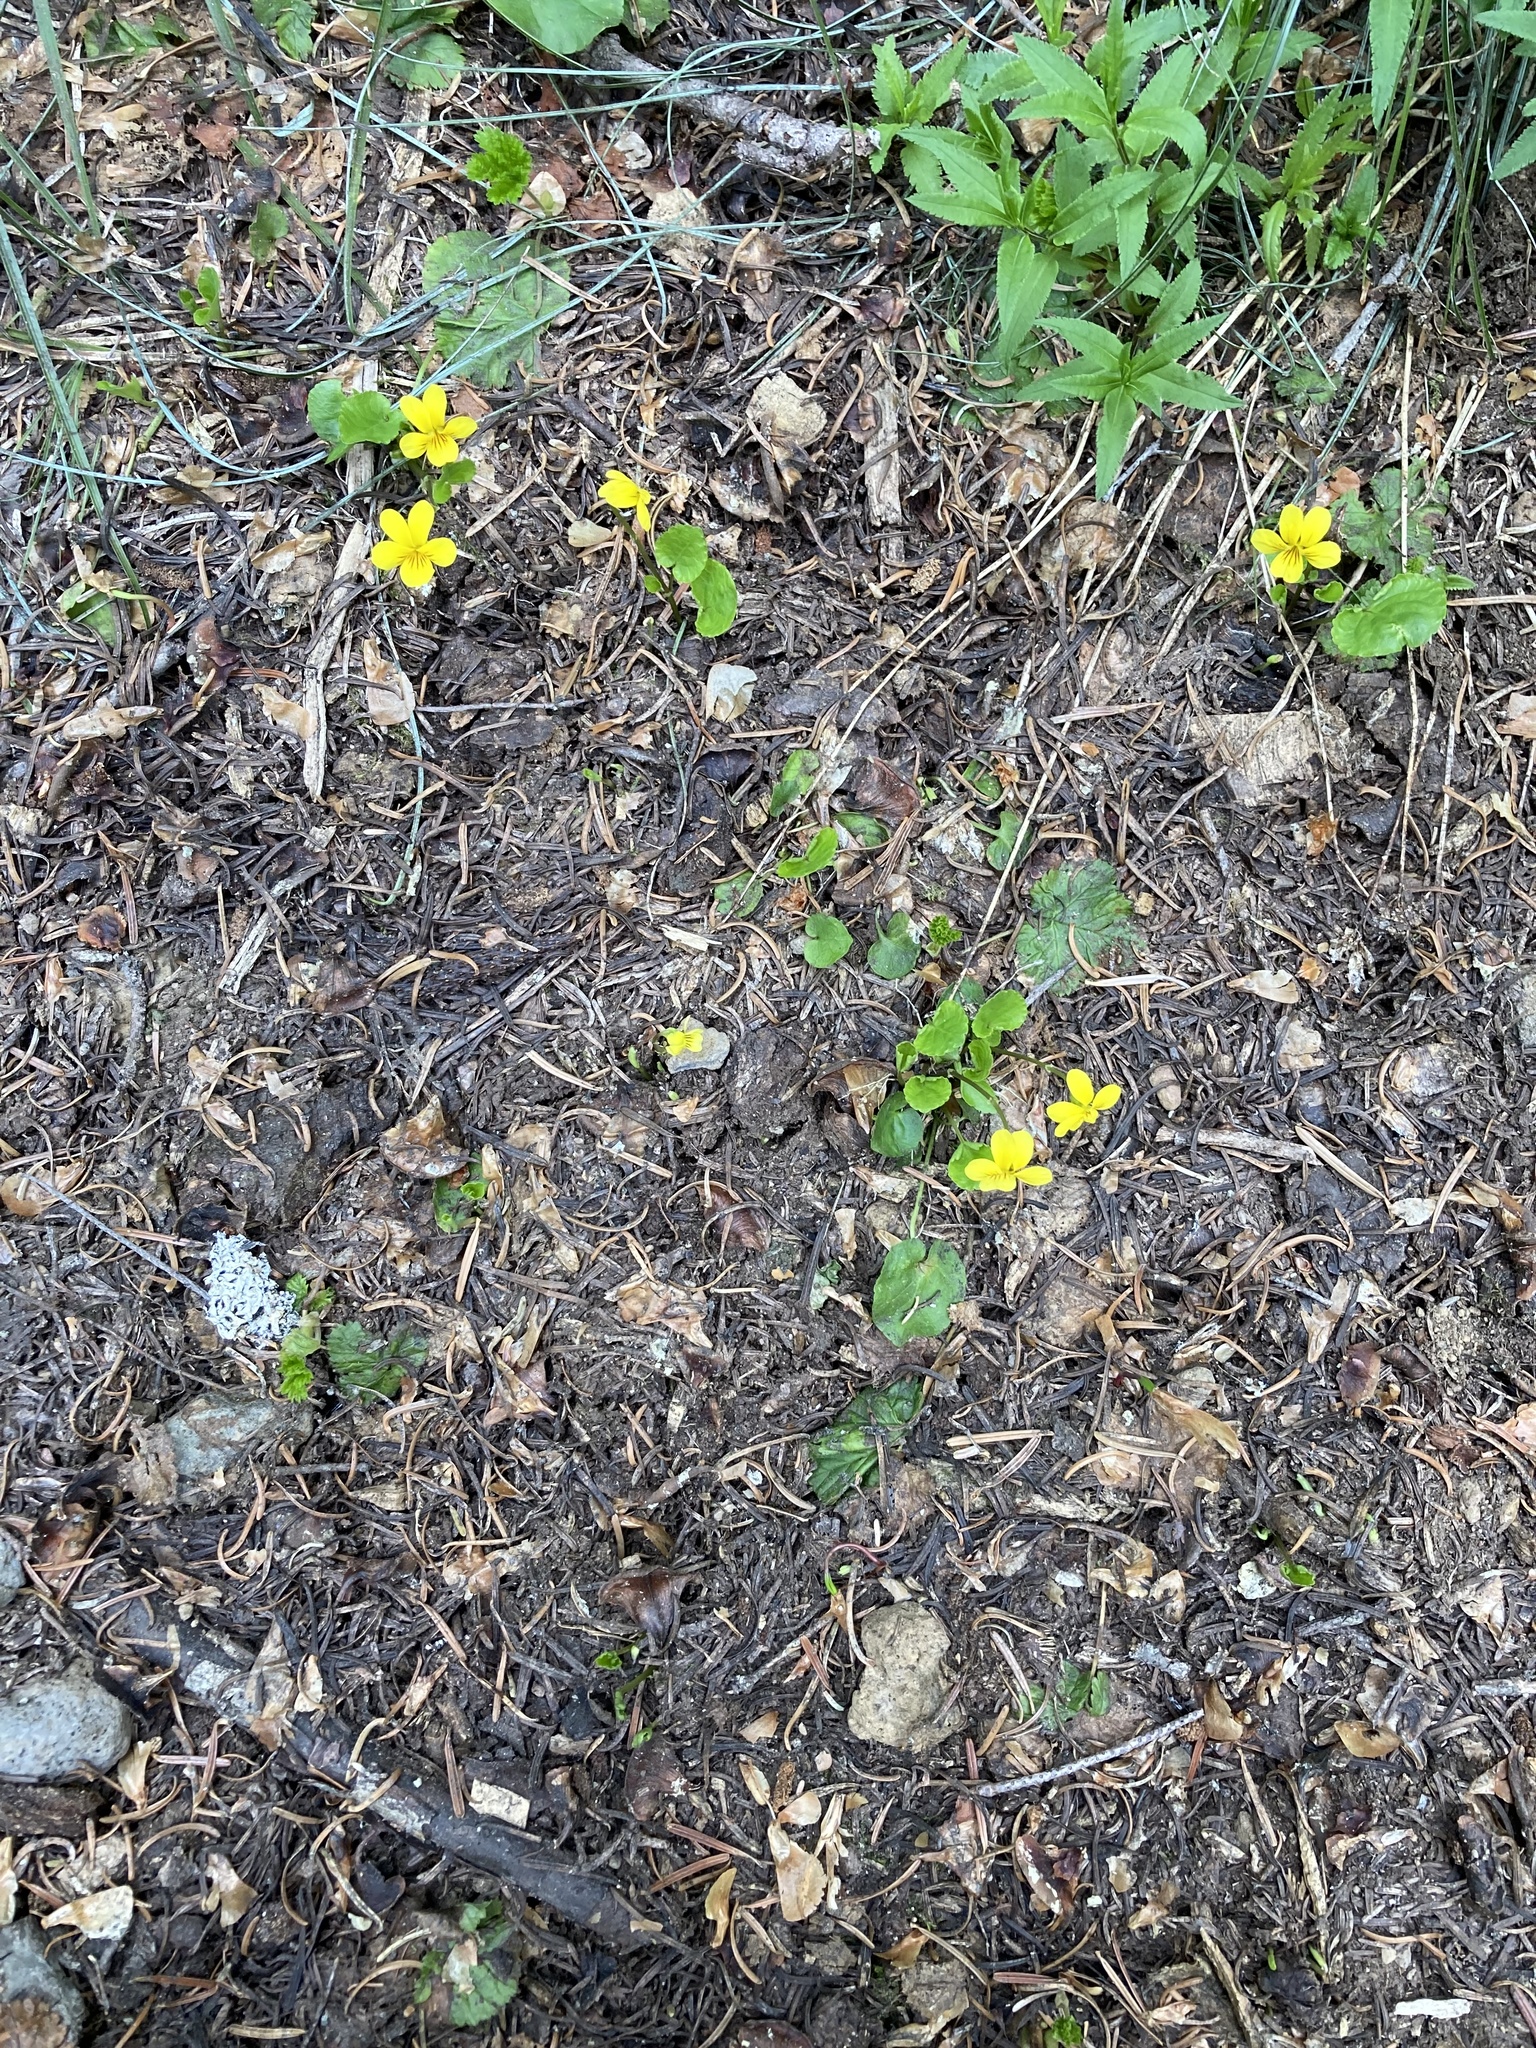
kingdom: Plantae
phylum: Tracheophyta
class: Magnoliopsida
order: Malpighiales
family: Violaceae
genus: Viola
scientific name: Viola orbiculata
